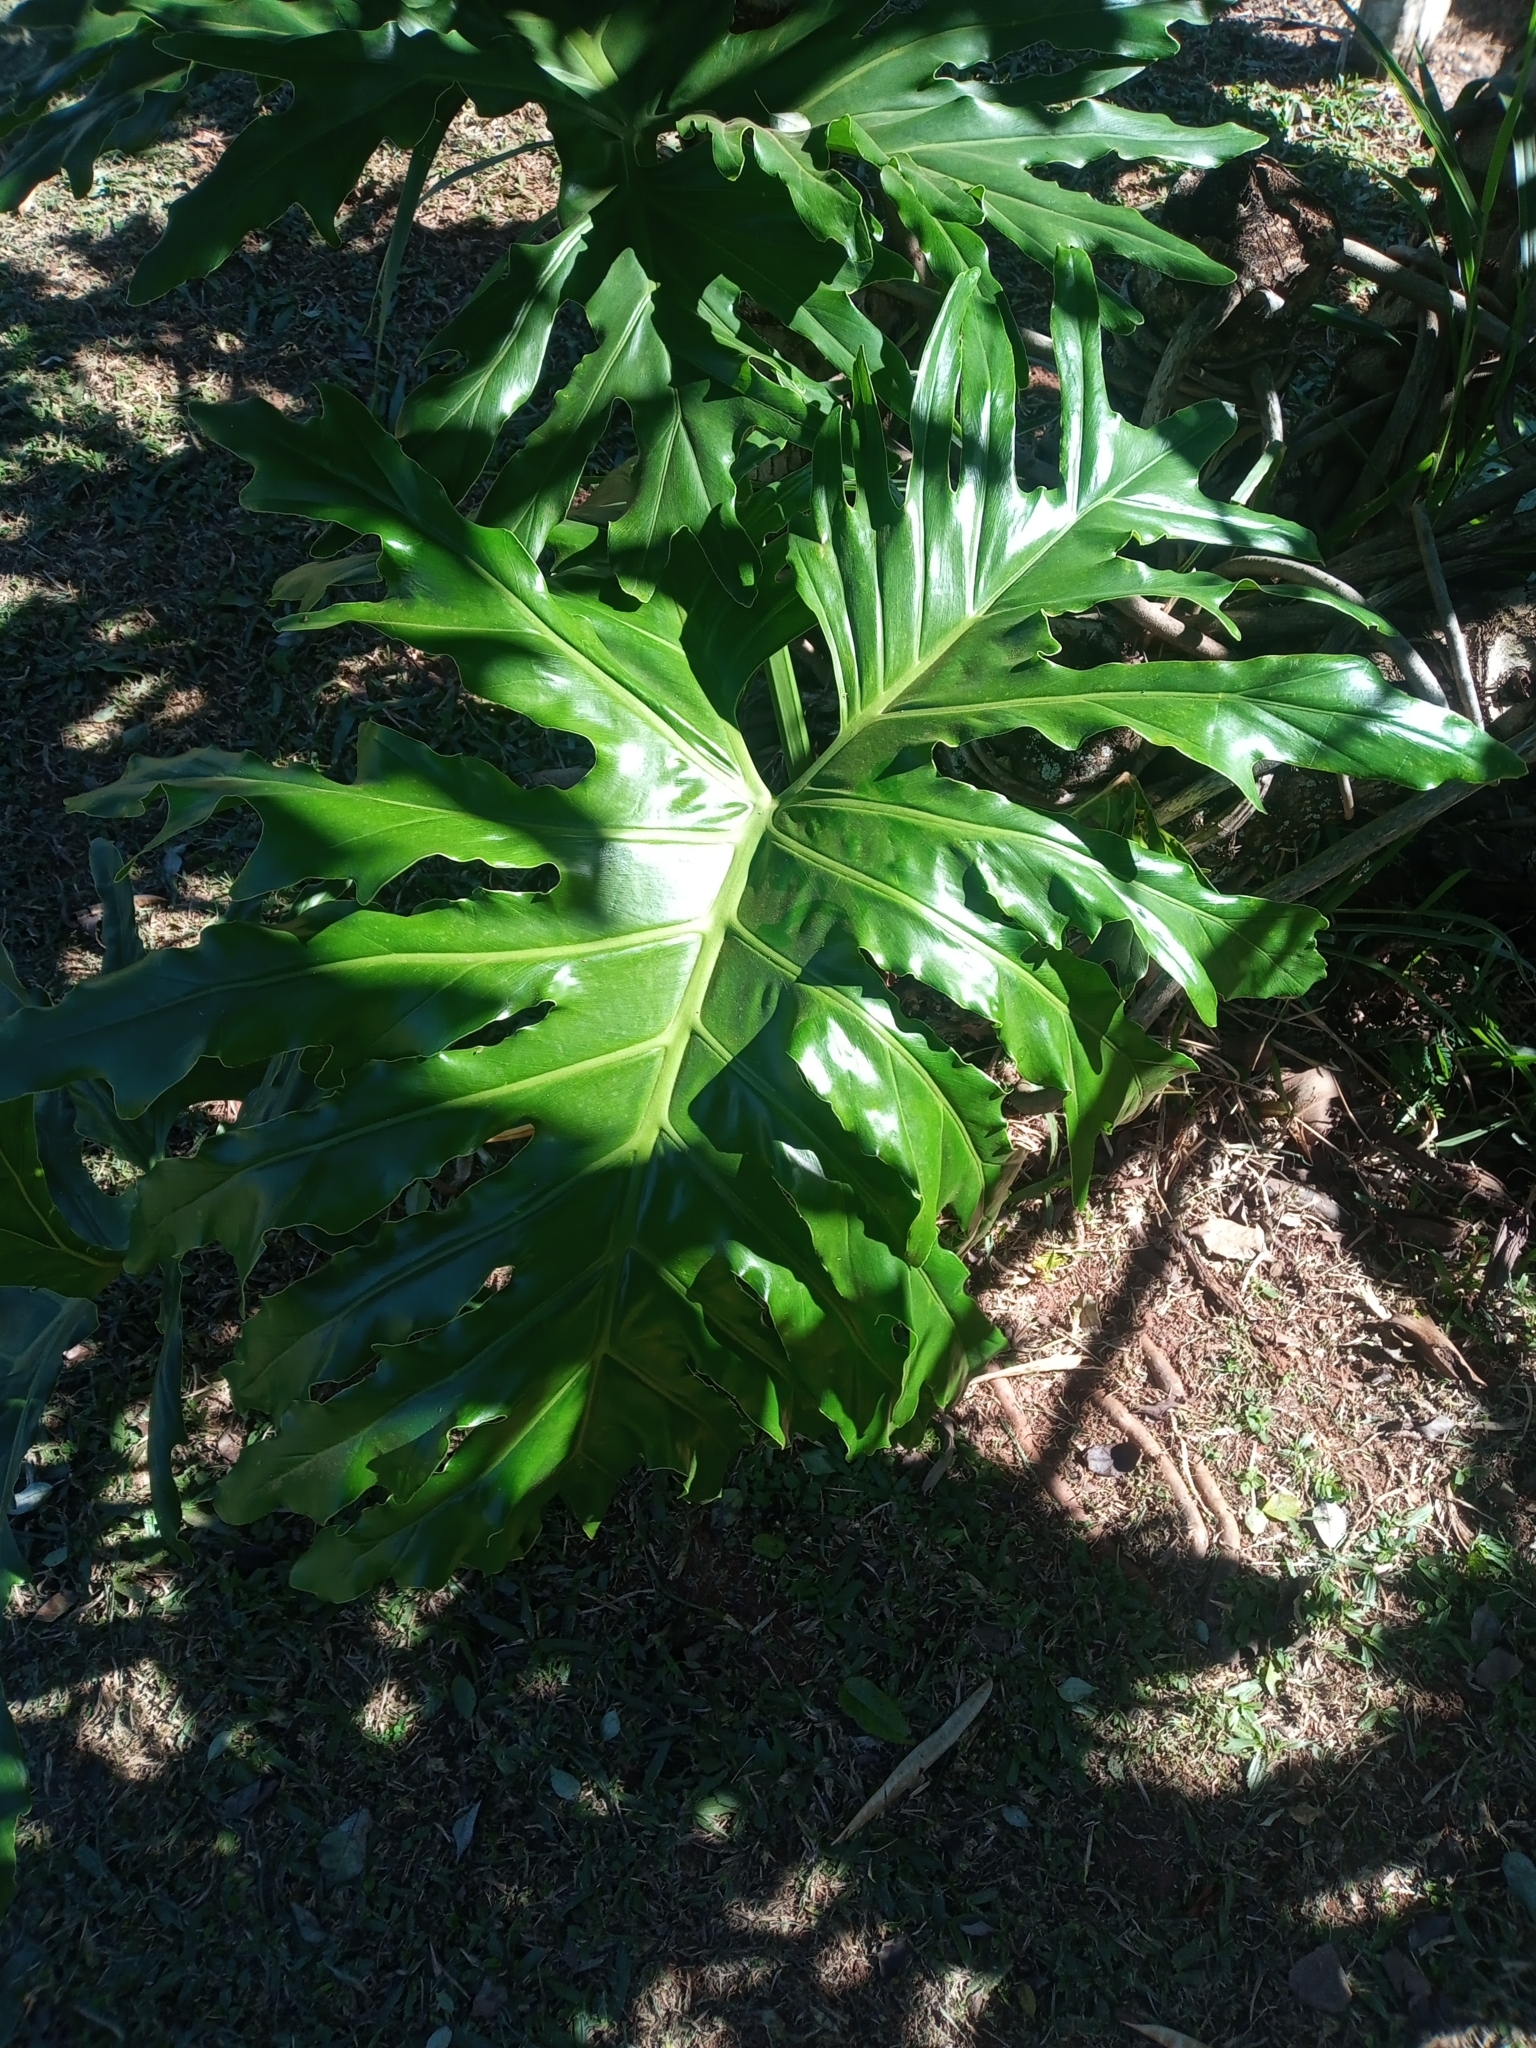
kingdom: Plantae
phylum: Tracheophyta
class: Liliopsida
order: Alismatales
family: Araceae
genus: Thaumatophyllum
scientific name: Thaumatophyllum bipinnatifidum
